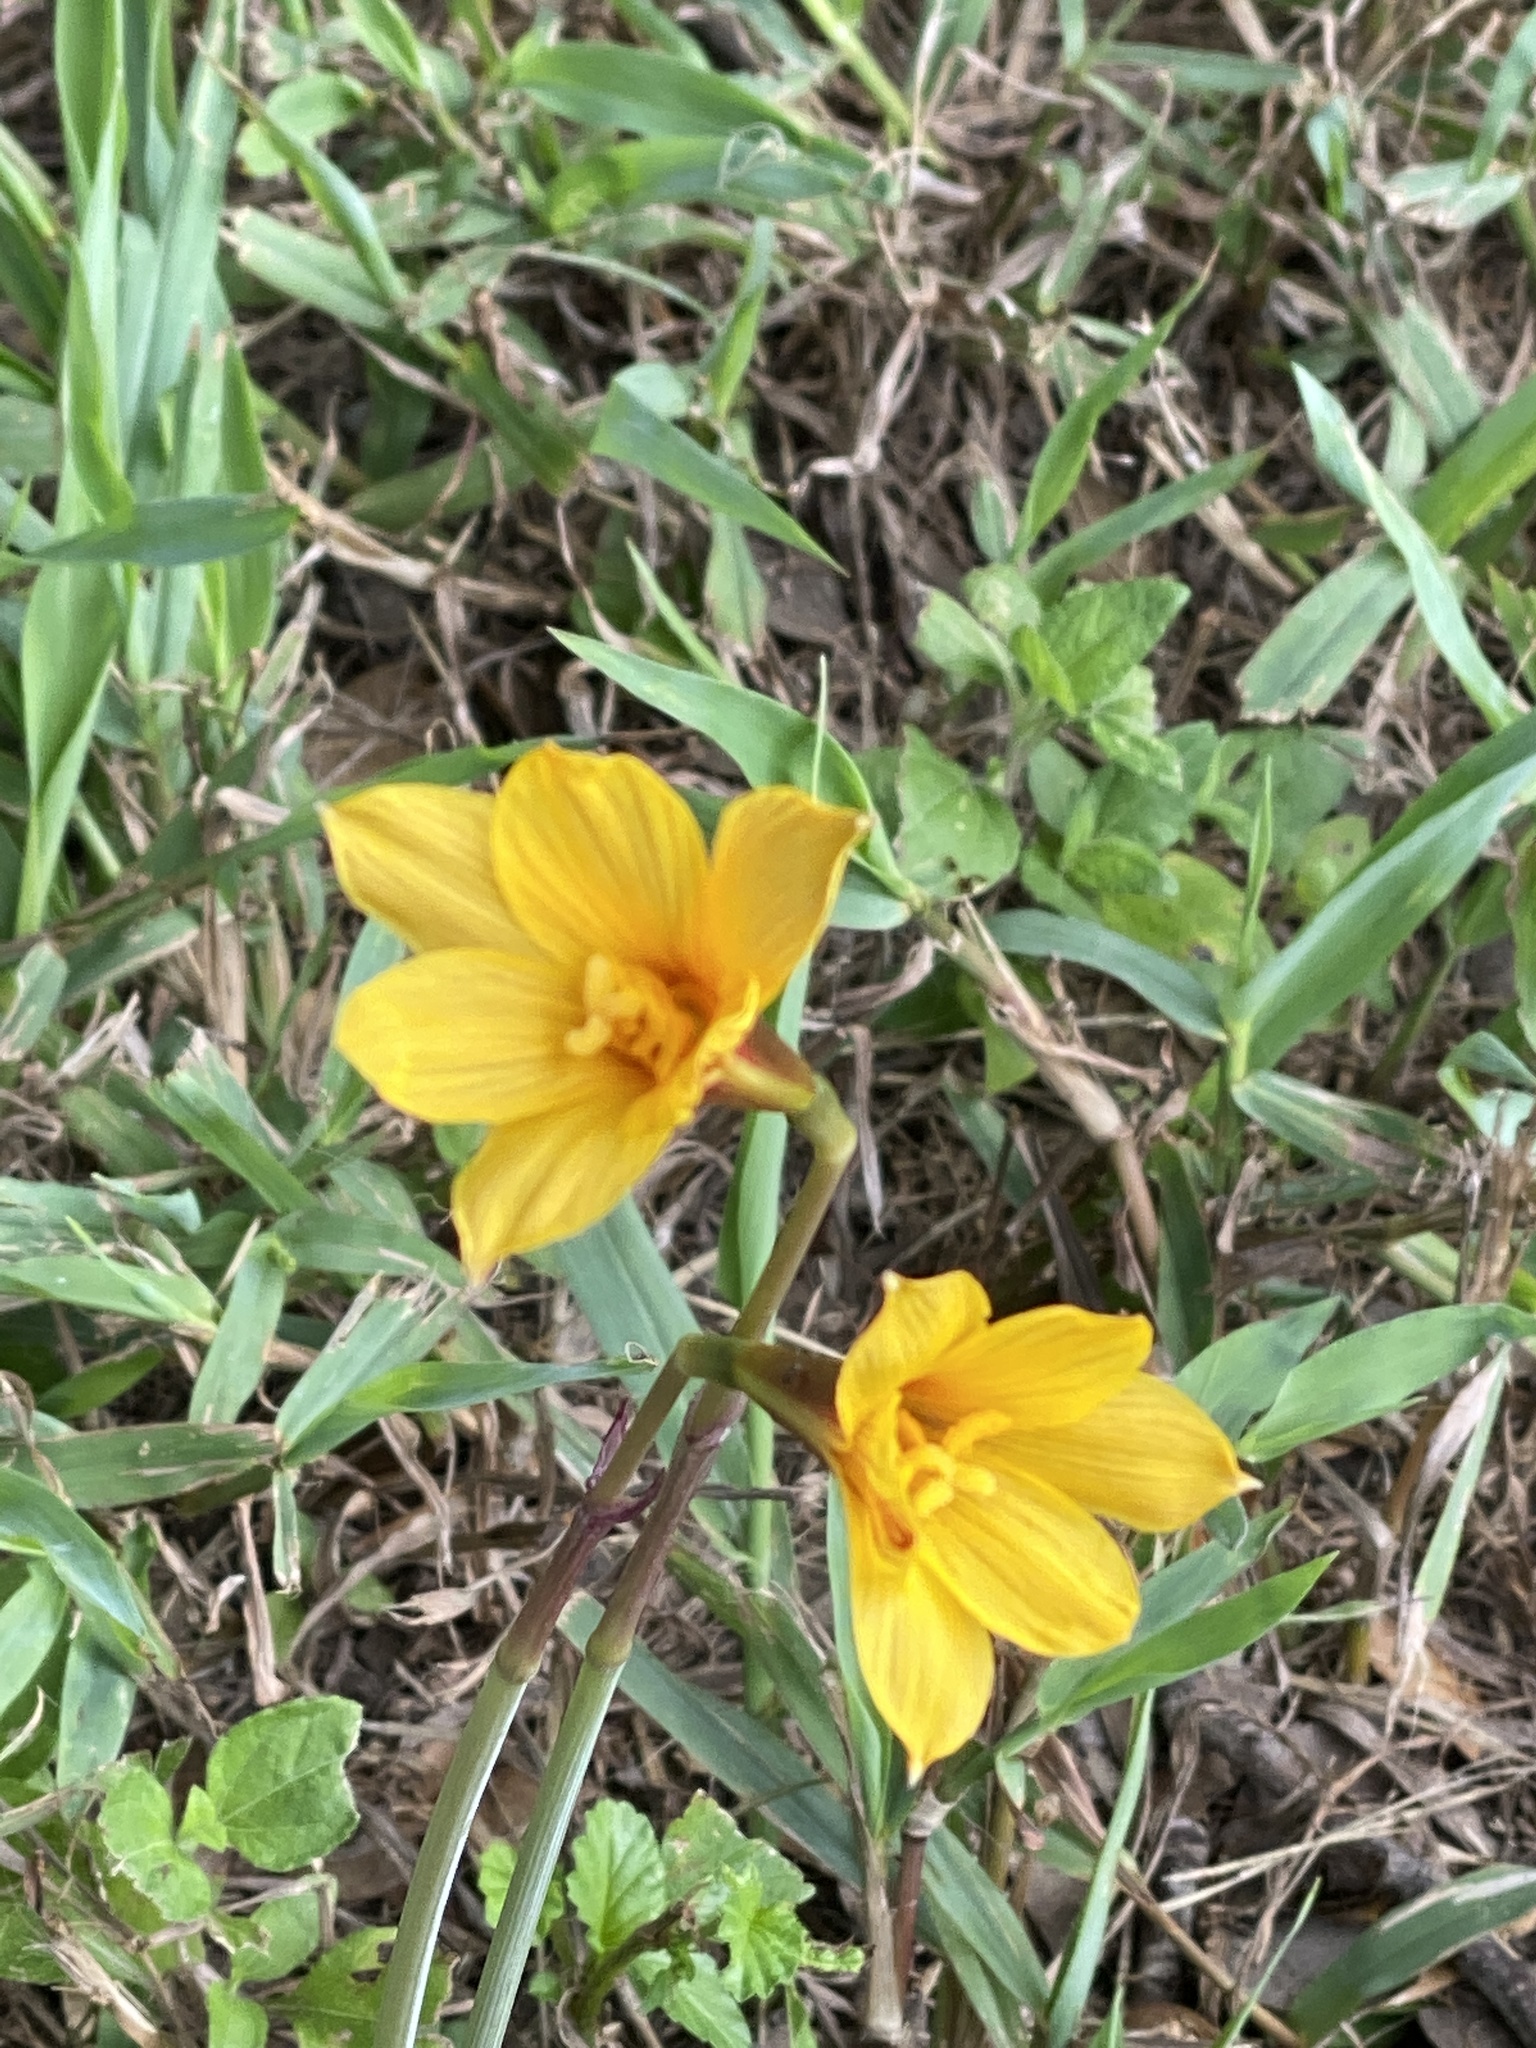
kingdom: Plantae
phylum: Tracheophyta
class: Liliopsida
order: Asparagales
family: Amaryllidaceae
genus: Zephyranthes
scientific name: Zephyranthes tubispatha
